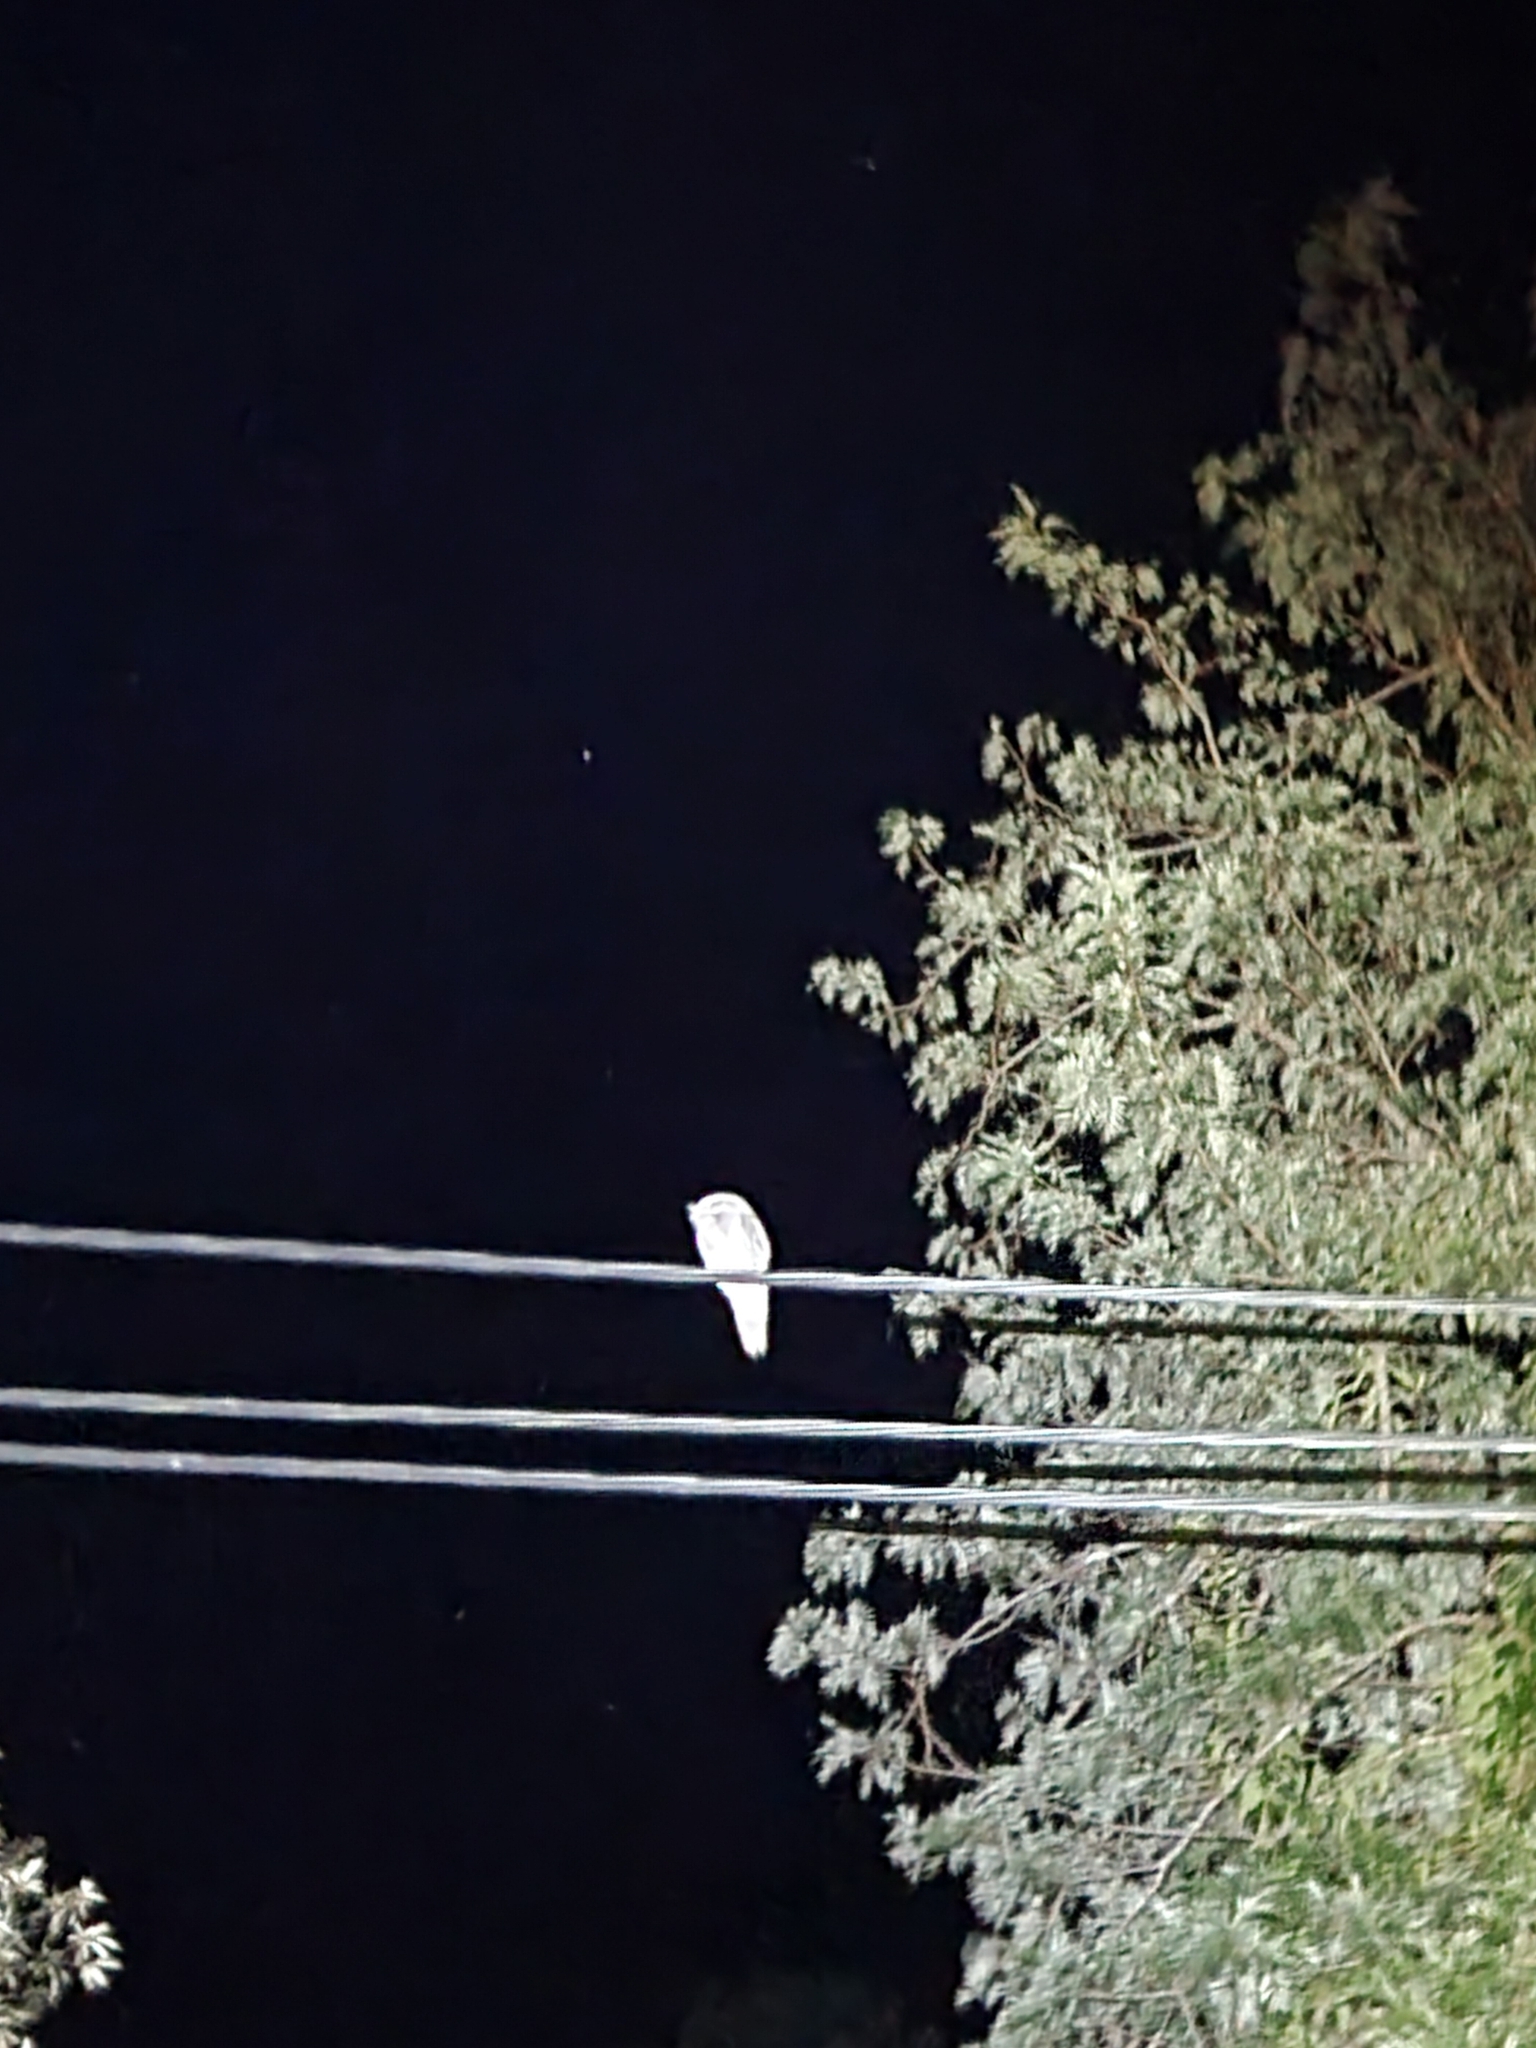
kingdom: Animalia
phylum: Chordata
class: Aves
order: Caprimulgiformes
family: Podargidae
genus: Podargus
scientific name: Podargus strigoides
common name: Tawny frogmouth
